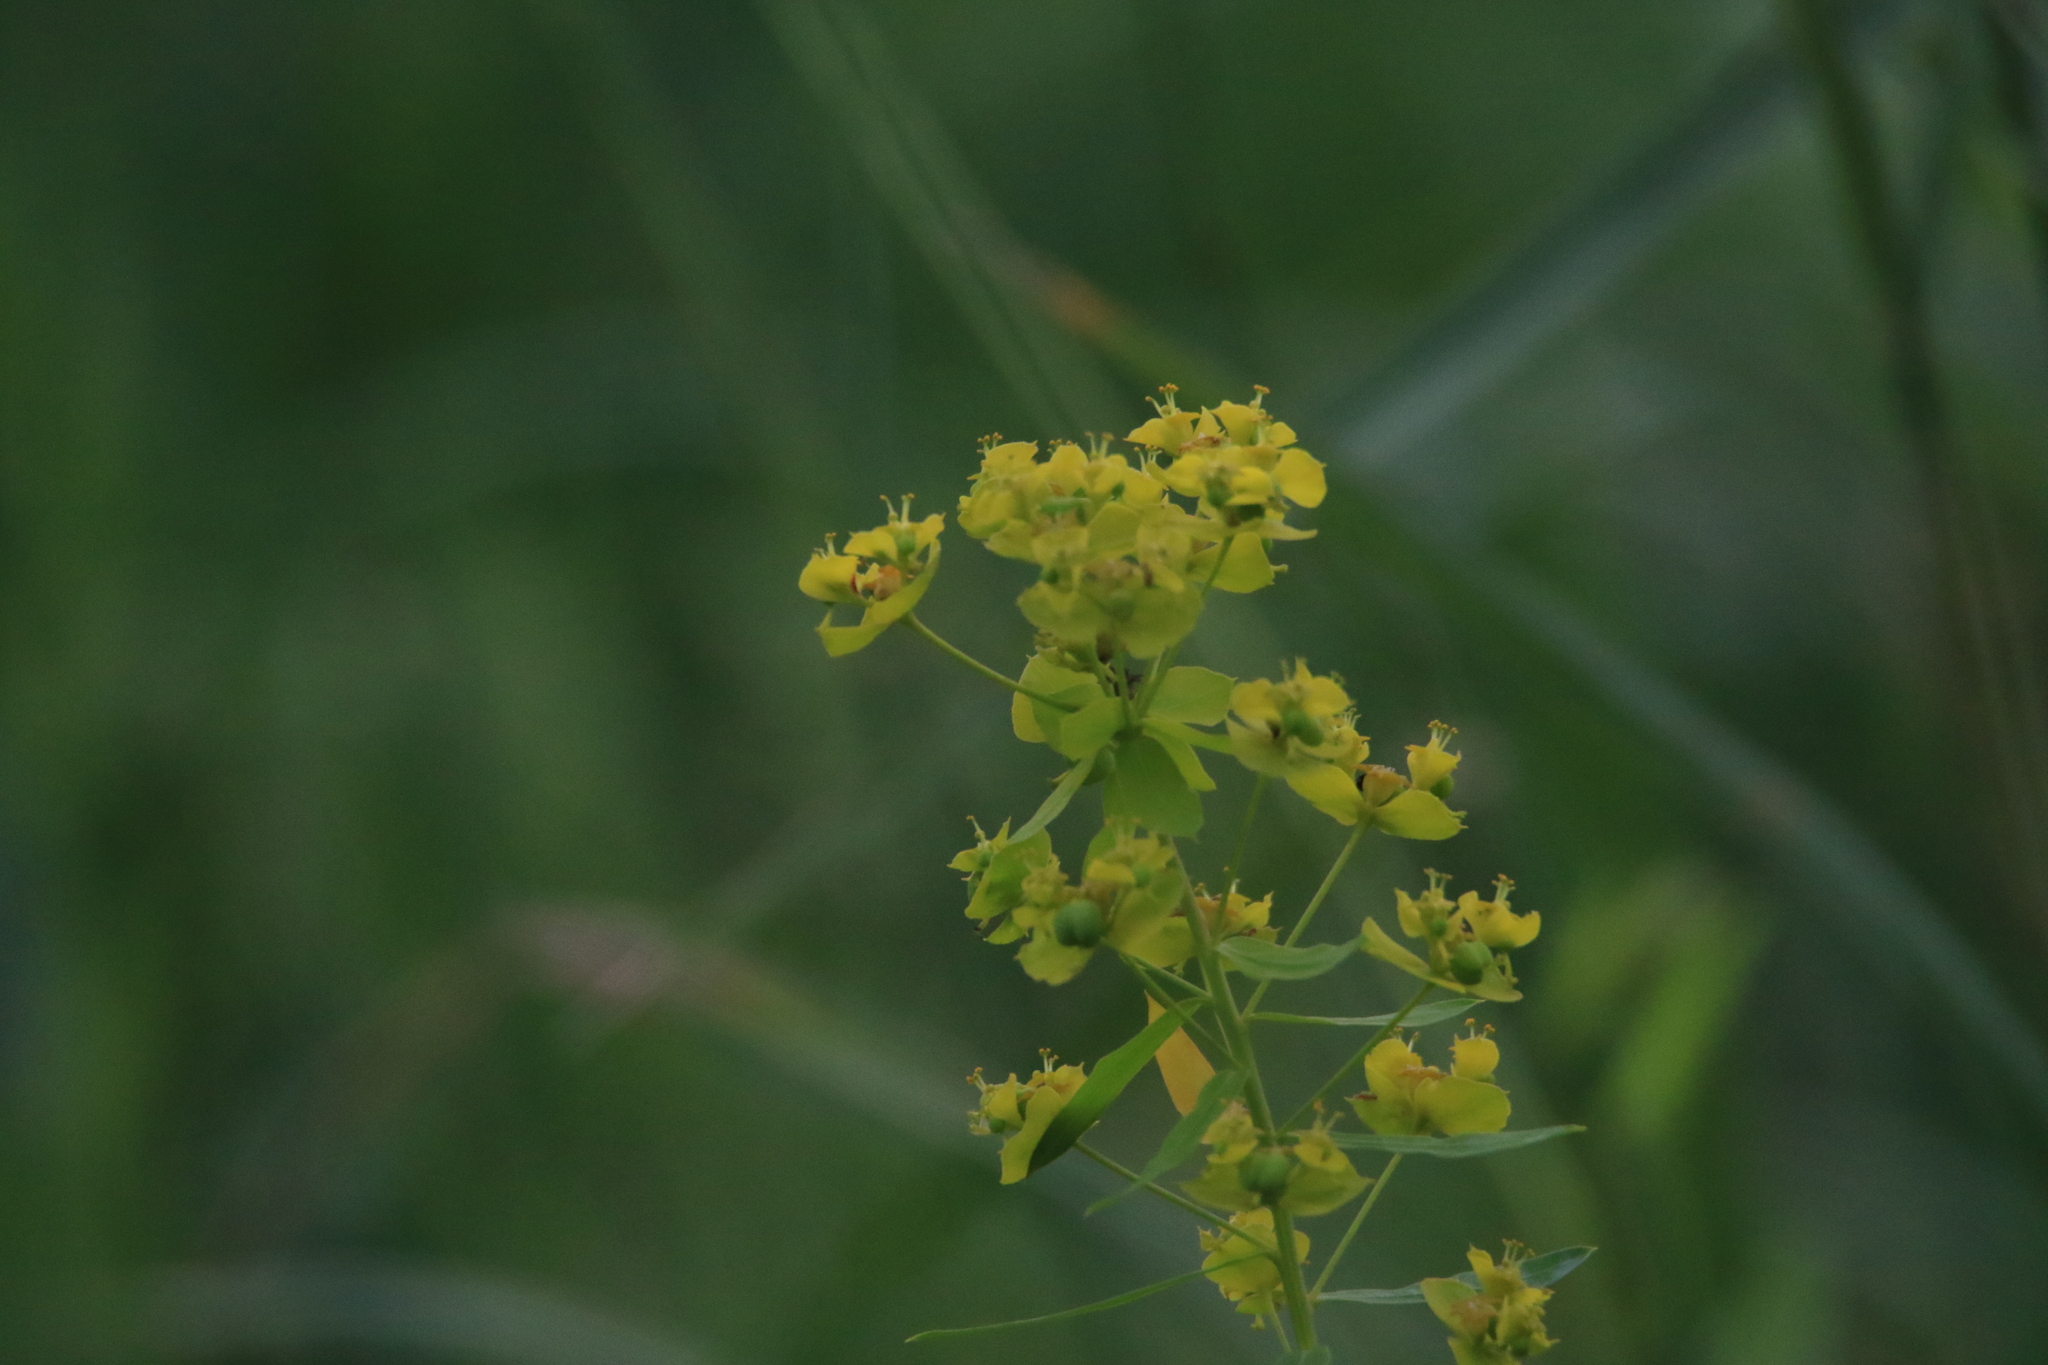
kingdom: Plantae
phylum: Tracheophyta
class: Magnoliopsida
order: Malpighiales
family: Euphorbiaceae
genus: Euphorbia
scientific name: Euphorbia virgata
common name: Leafy spurge
